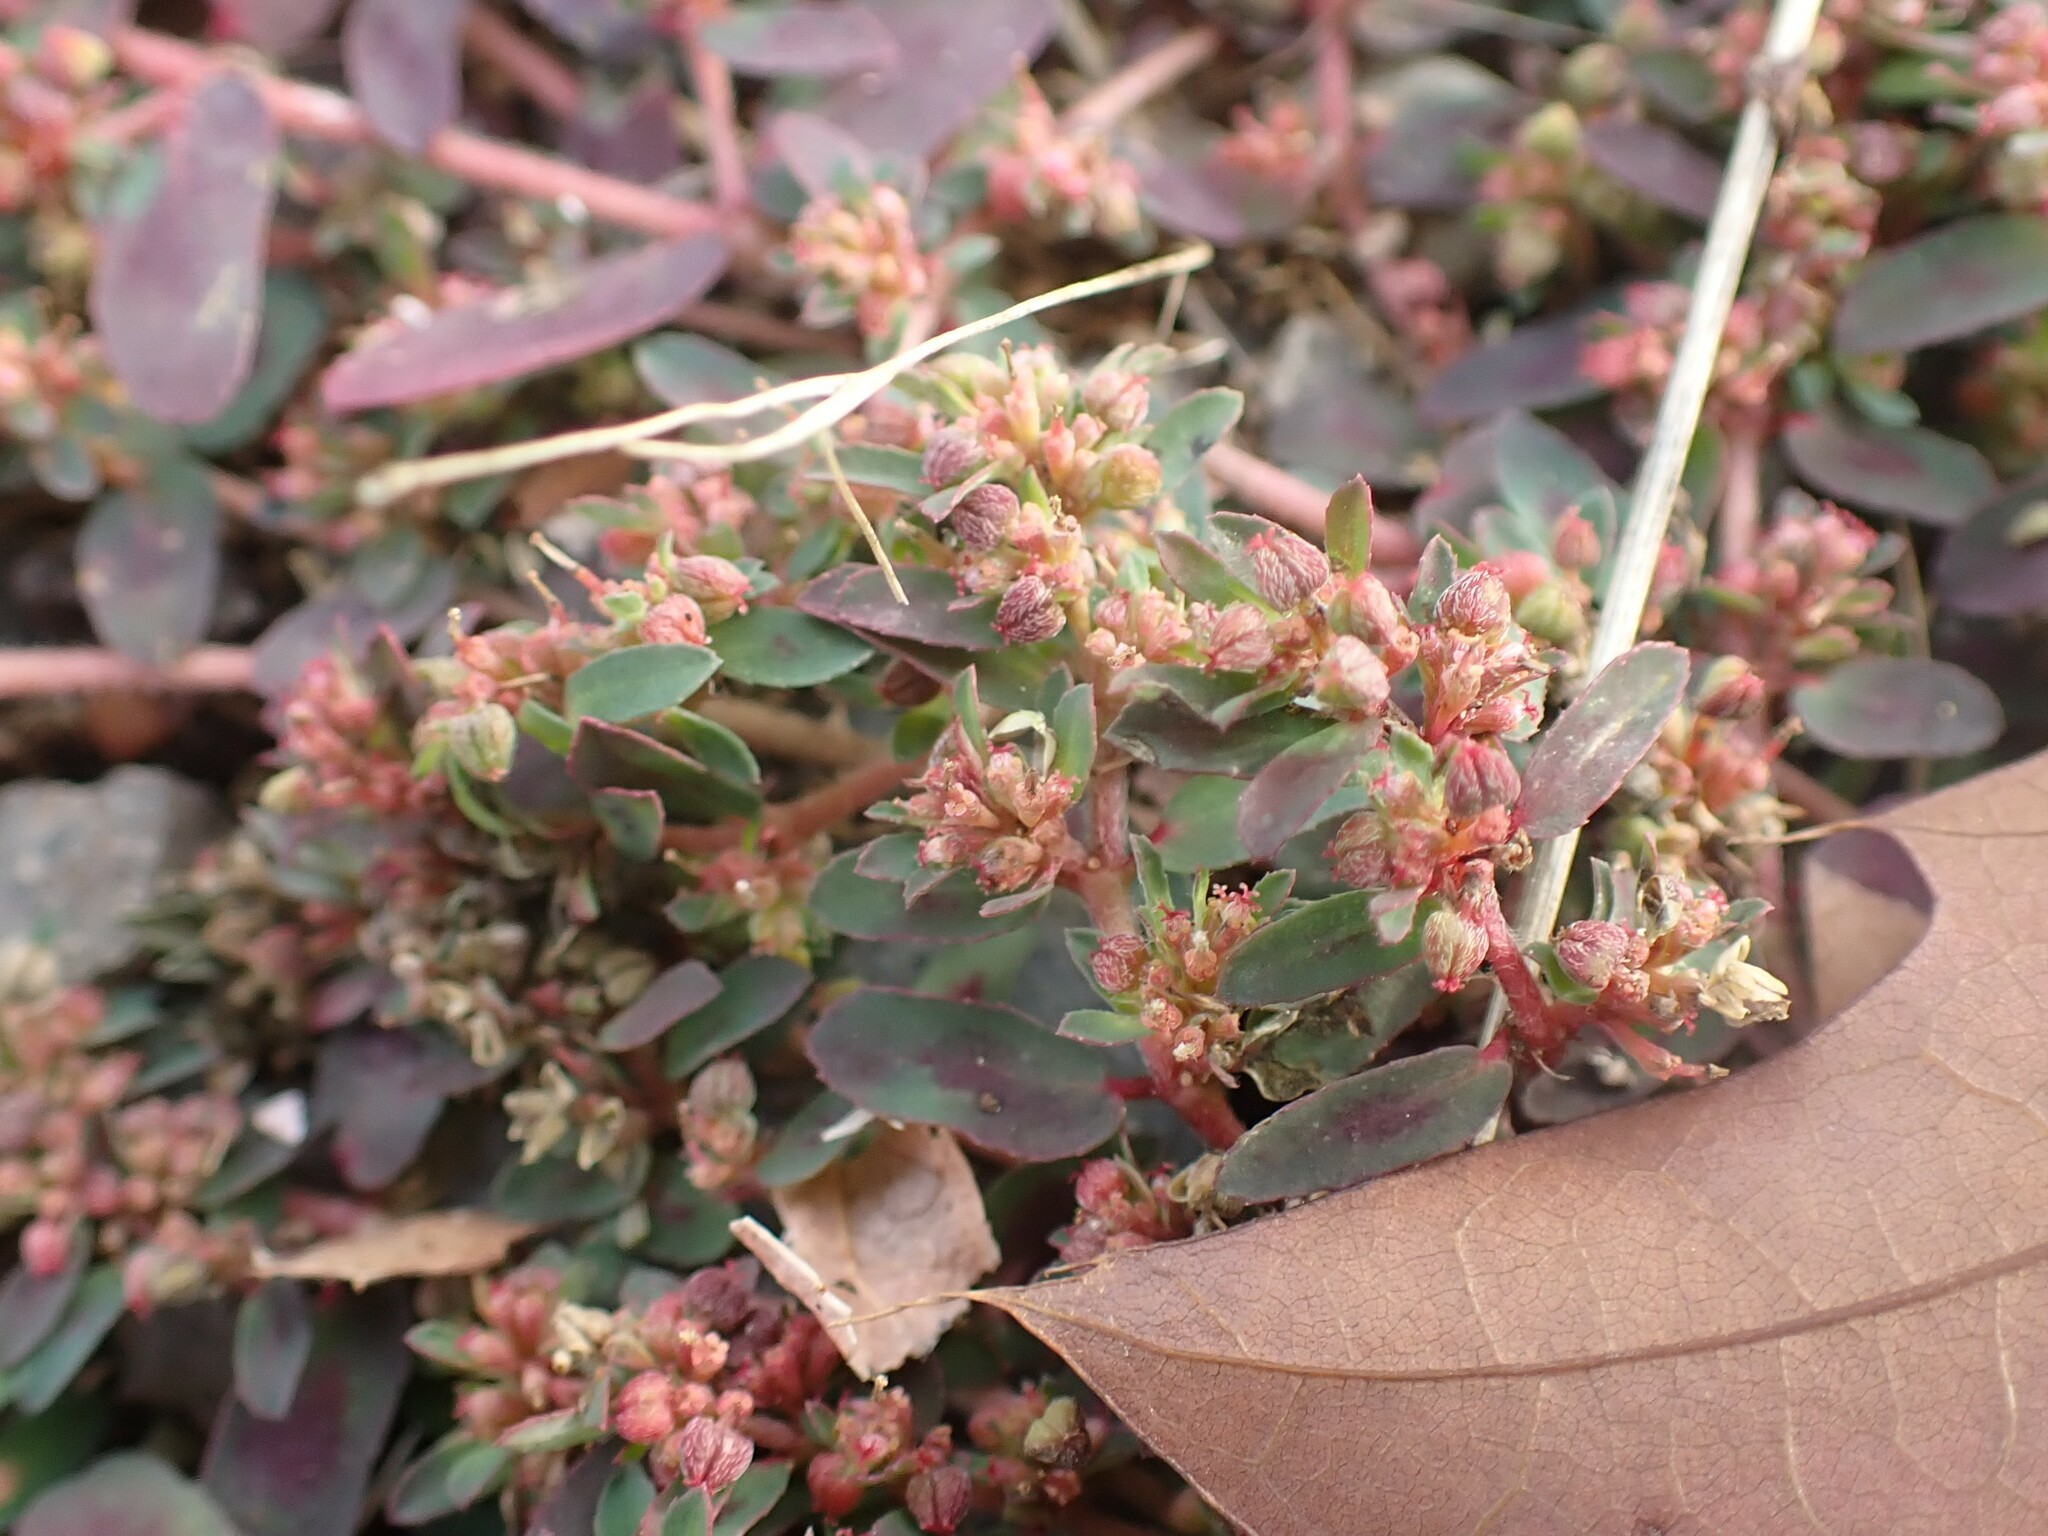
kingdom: Plantae
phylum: Tracheophyta
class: Magnoliopsida
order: Malpighiales
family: Euphorbiaceae
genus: Euphorbia
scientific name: Euphorbia maculata
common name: Spotted spurge
